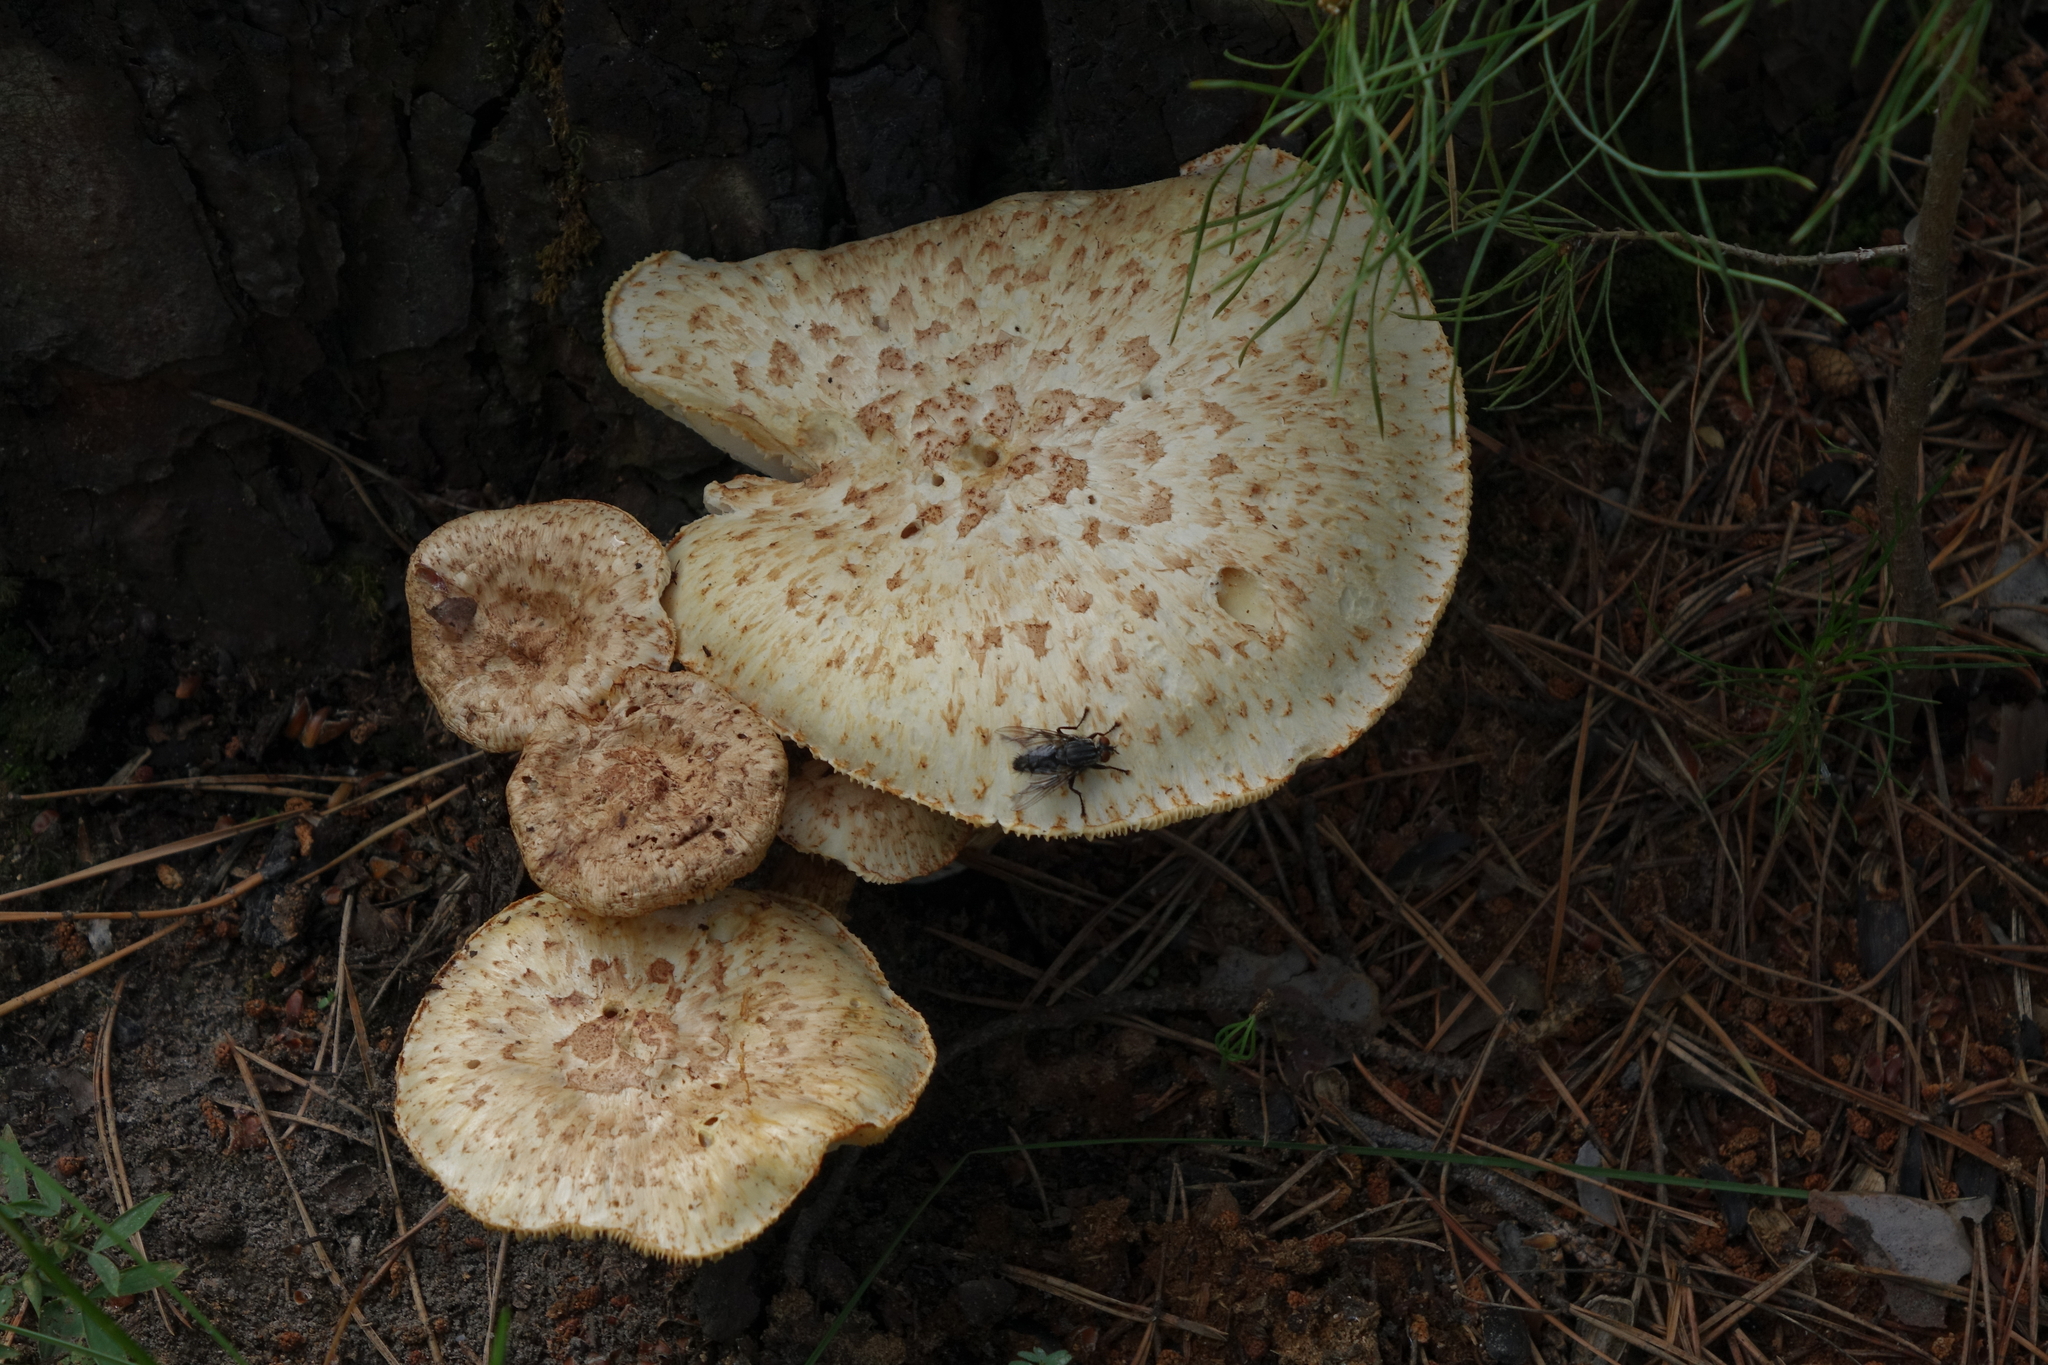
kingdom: Fungi
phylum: Basidiomycota
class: Agaricomycetes
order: Gloeophyllales
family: Gloeophyllaceae
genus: Neolentinus
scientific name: Neolentinus lepideus
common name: Scaly sawgill
